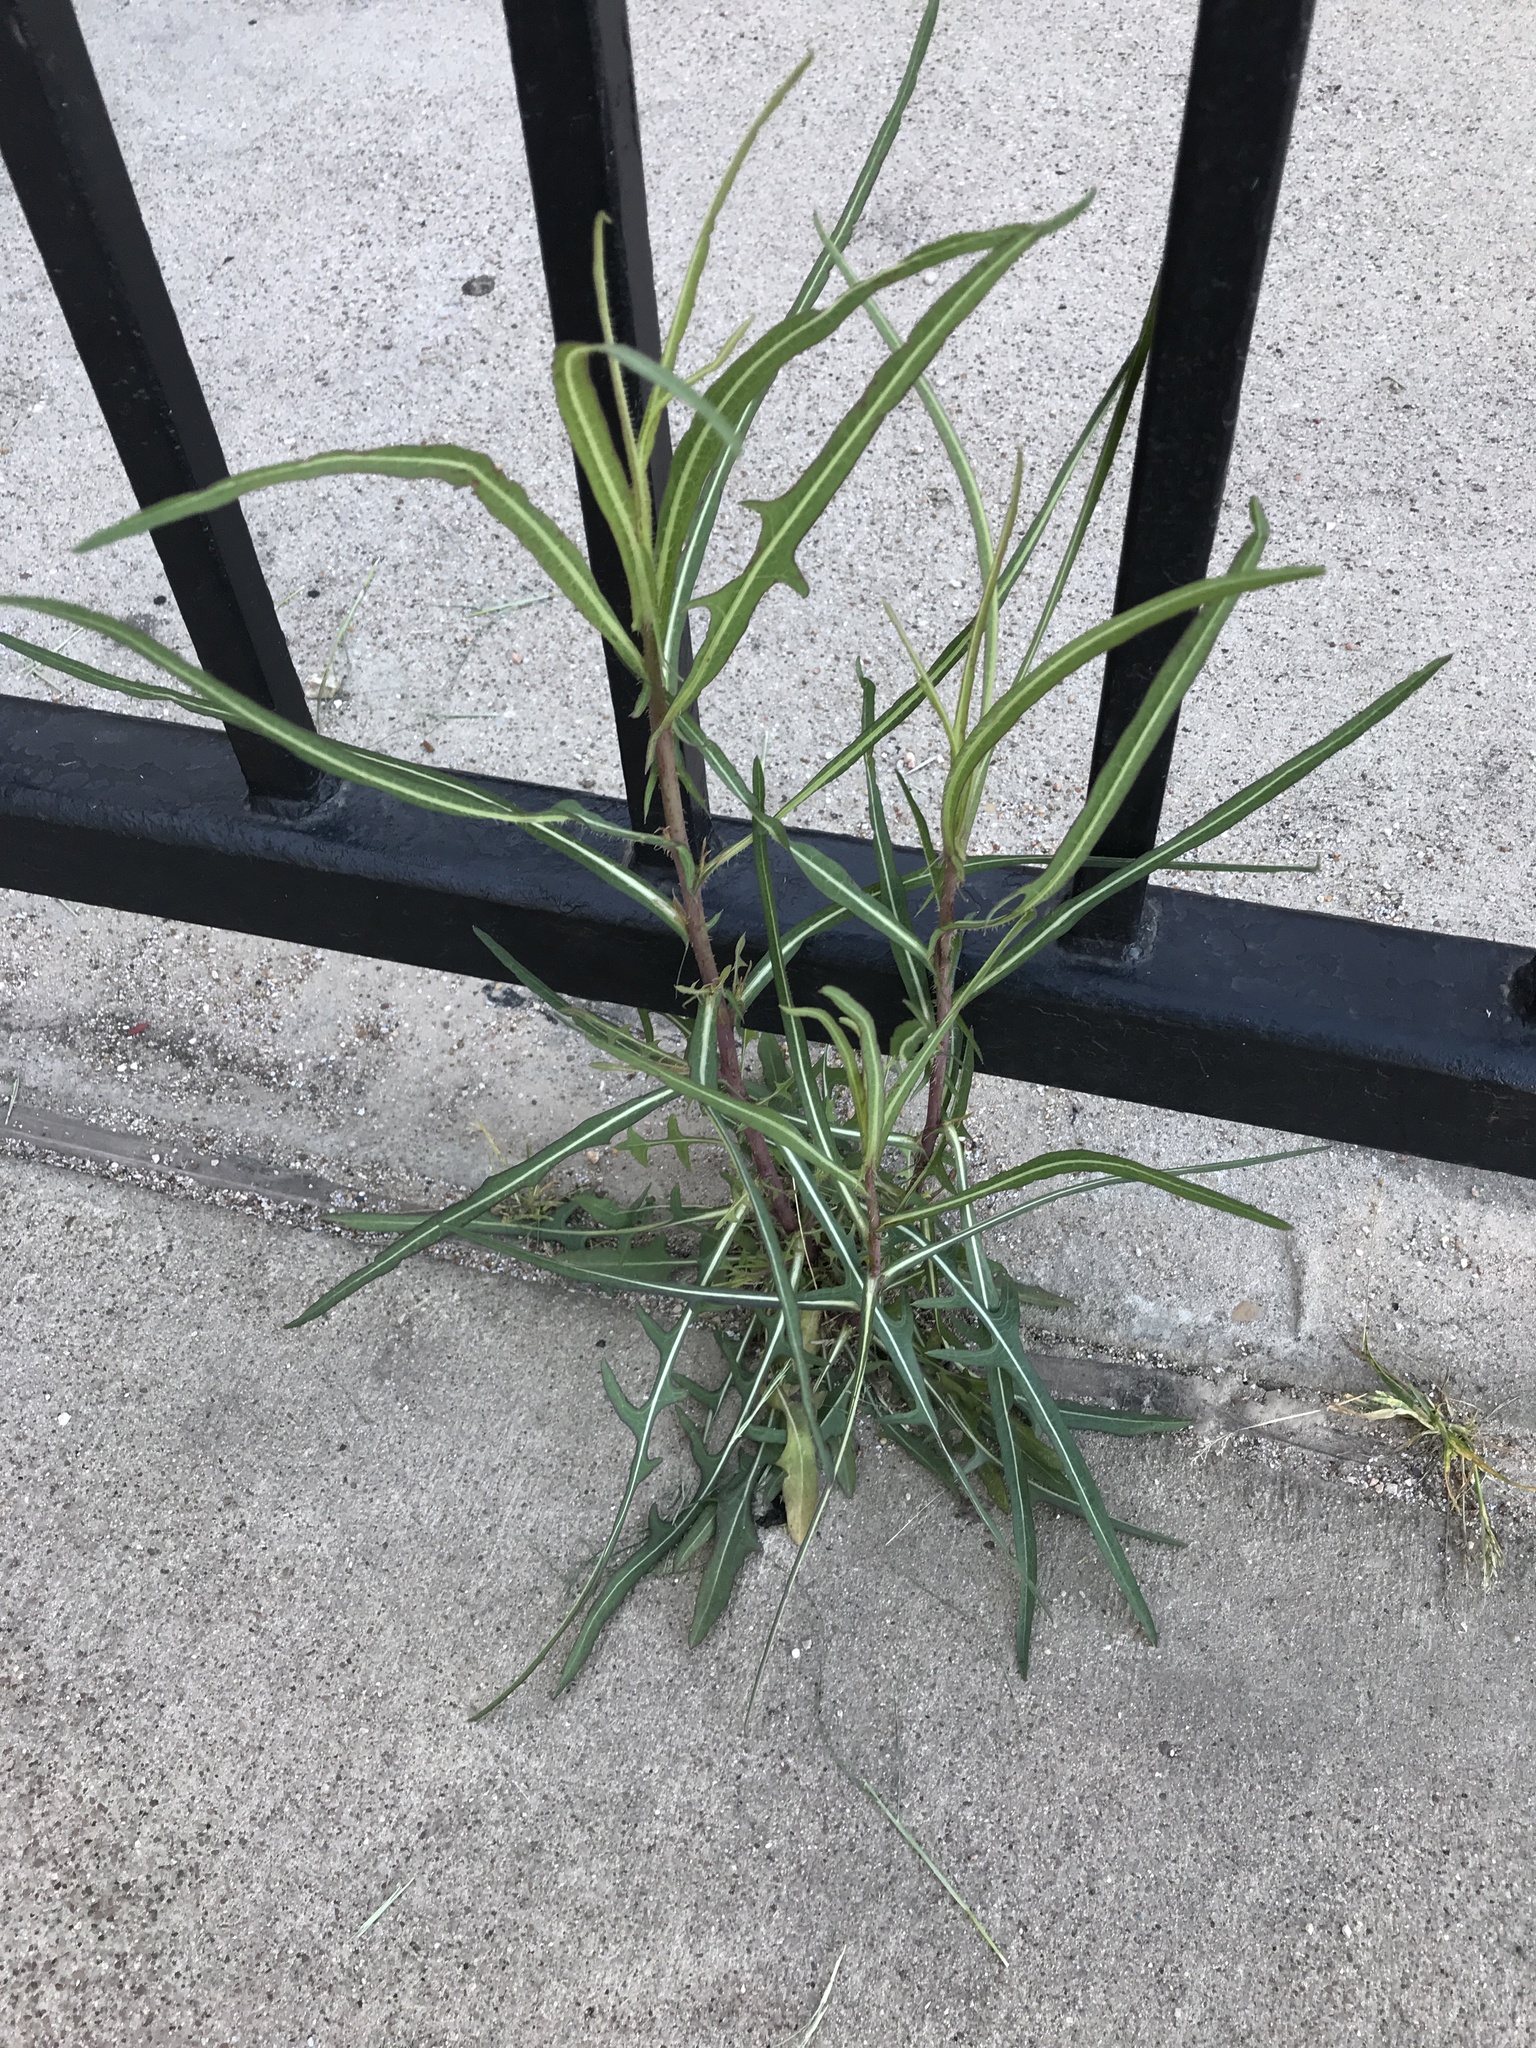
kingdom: Plantae
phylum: Tracheophyta
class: Magnoliopsida
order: Asterales
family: Asteraceae
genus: Lactuca
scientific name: Lactuca saligna
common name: Wild lettuce
